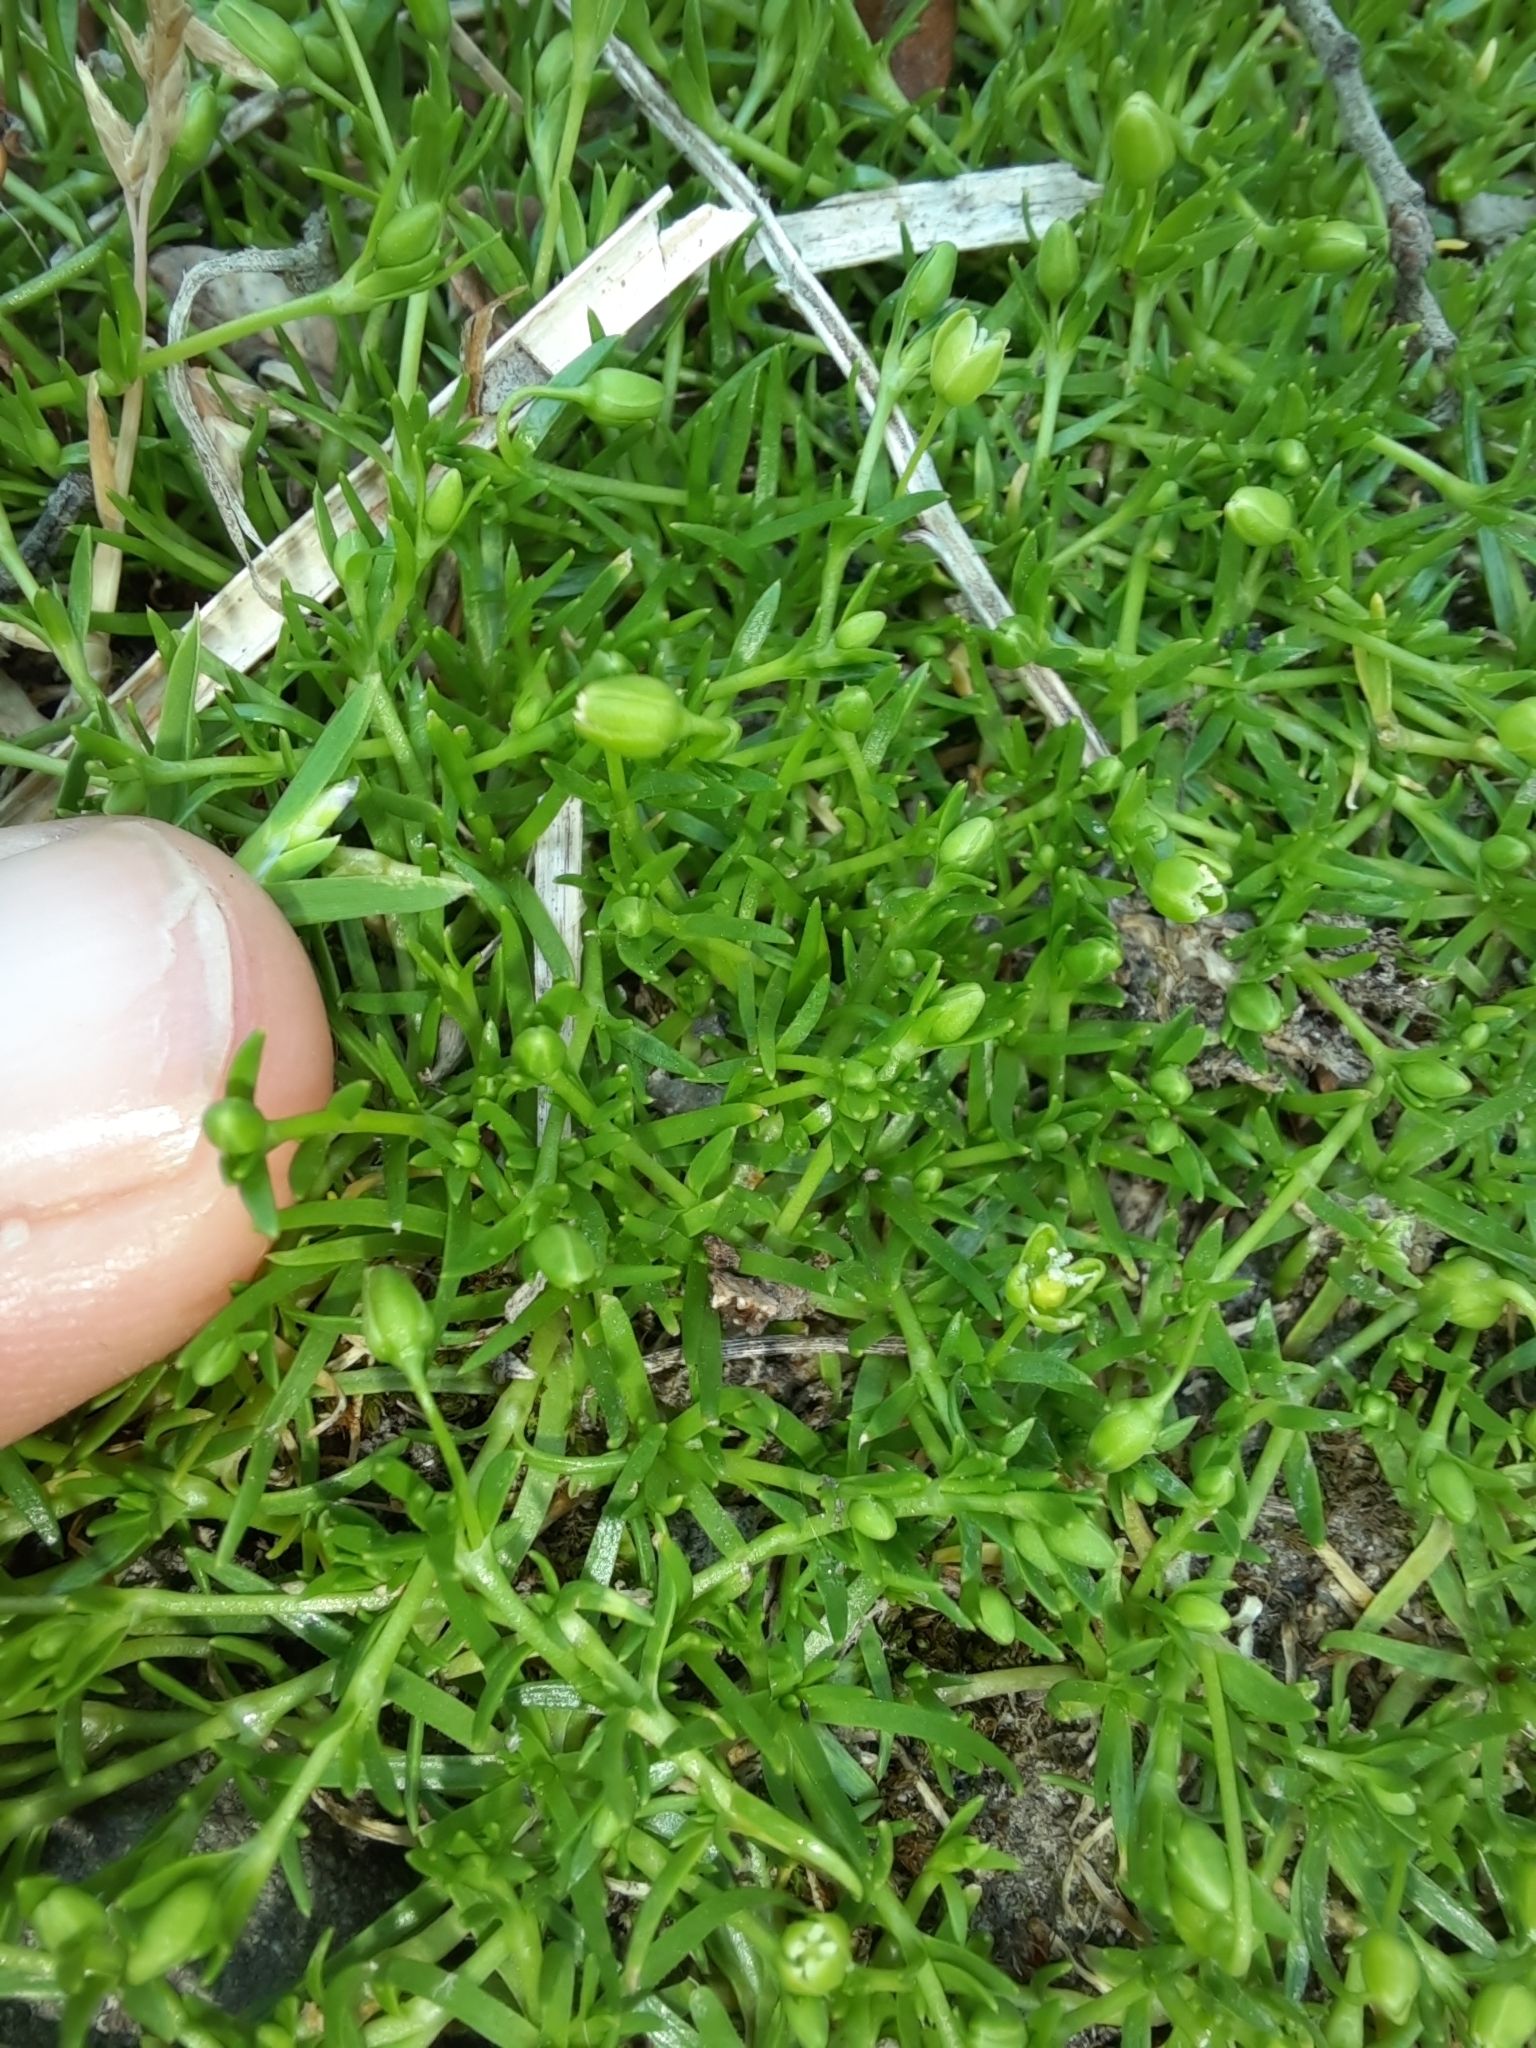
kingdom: Plantae
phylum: Tracheophyta
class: Magnoliopsida
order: Caryophyllales
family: Caryophyllaceae
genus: Sagina
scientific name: Sagina procumbens
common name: Procumbent pearlwort
